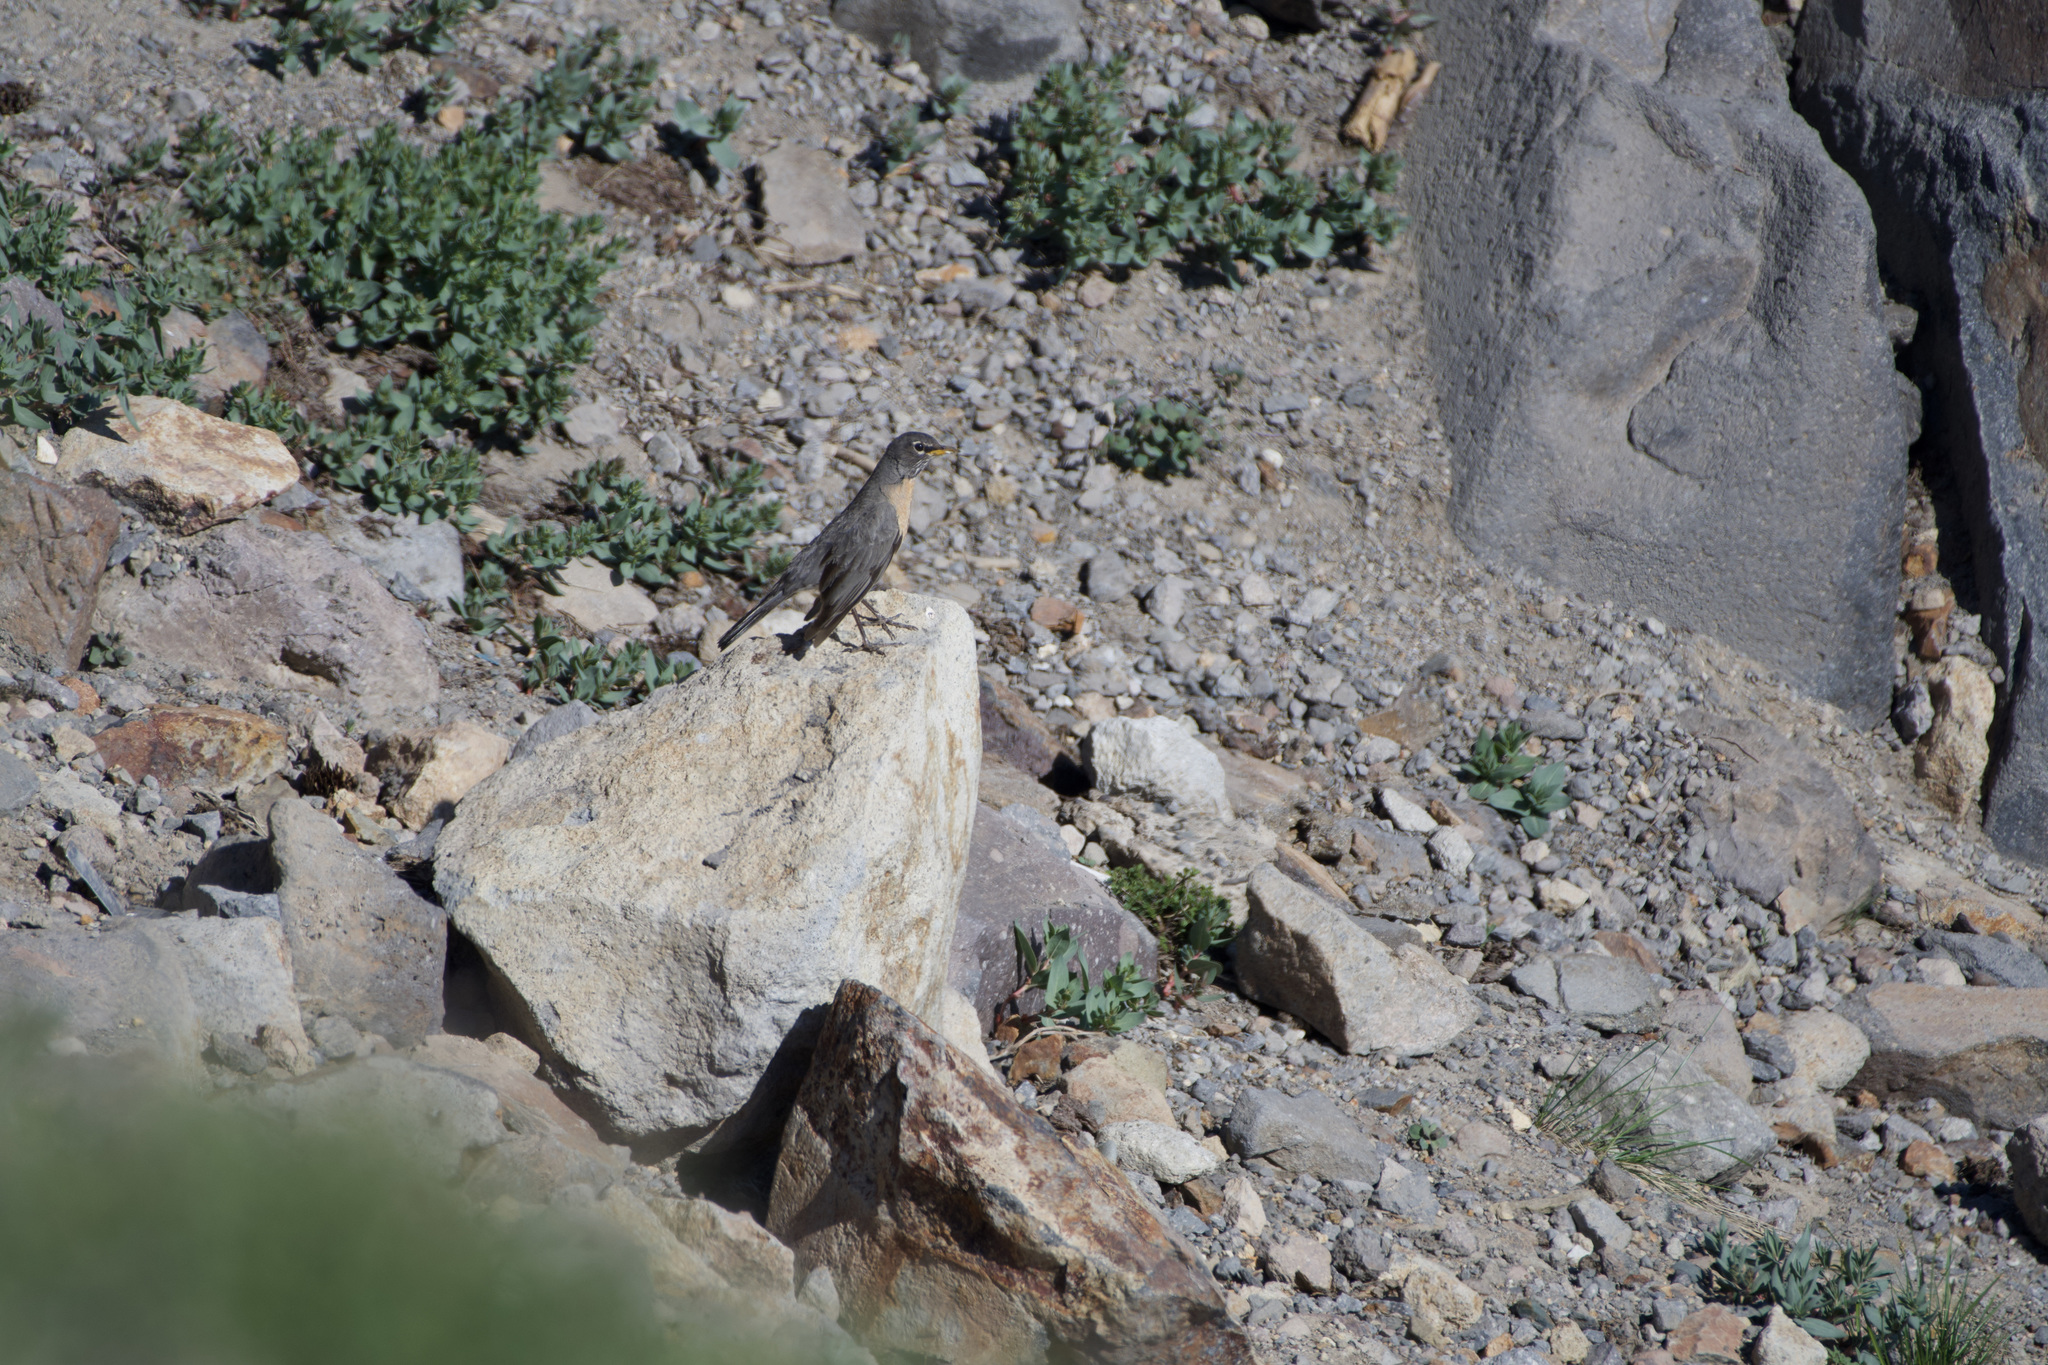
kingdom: Animalia
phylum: Chordata
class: Aves
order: Passeriformes
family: Turdidae
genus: Turdus
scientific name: Turdus migratorius
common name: American robin
